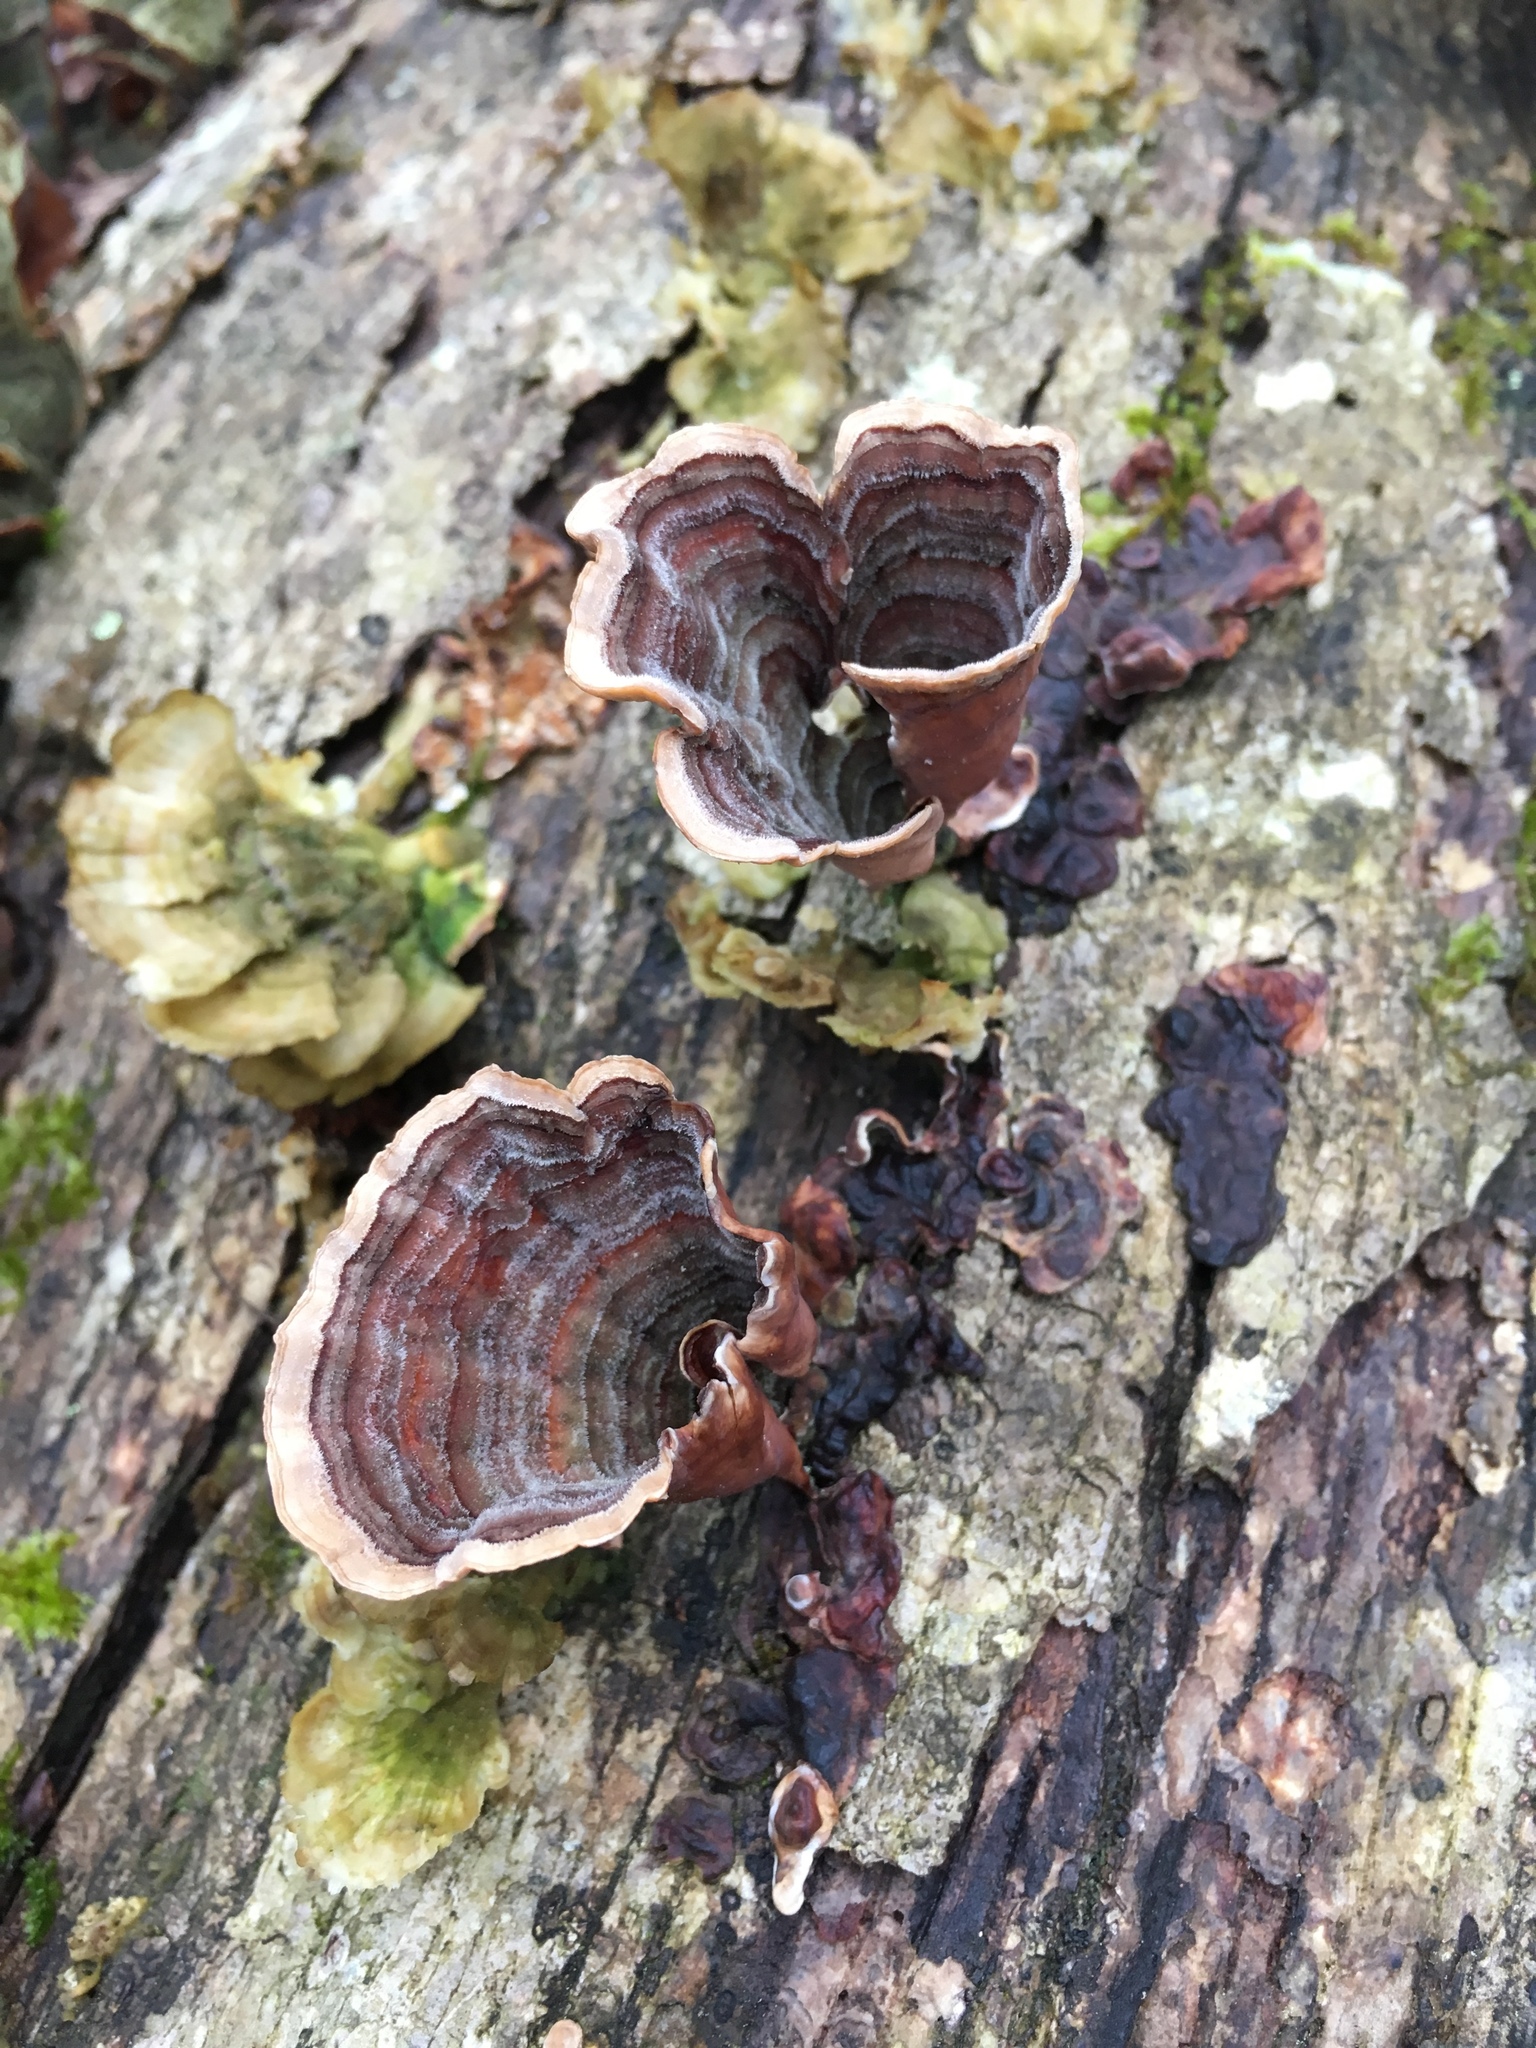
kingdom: Fungi
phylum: Basidiomycota
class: Agaricomycetes
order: Russulales
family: Stereaceae
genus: Stereum
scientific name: Stereum ostrea
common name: False turkeytail
